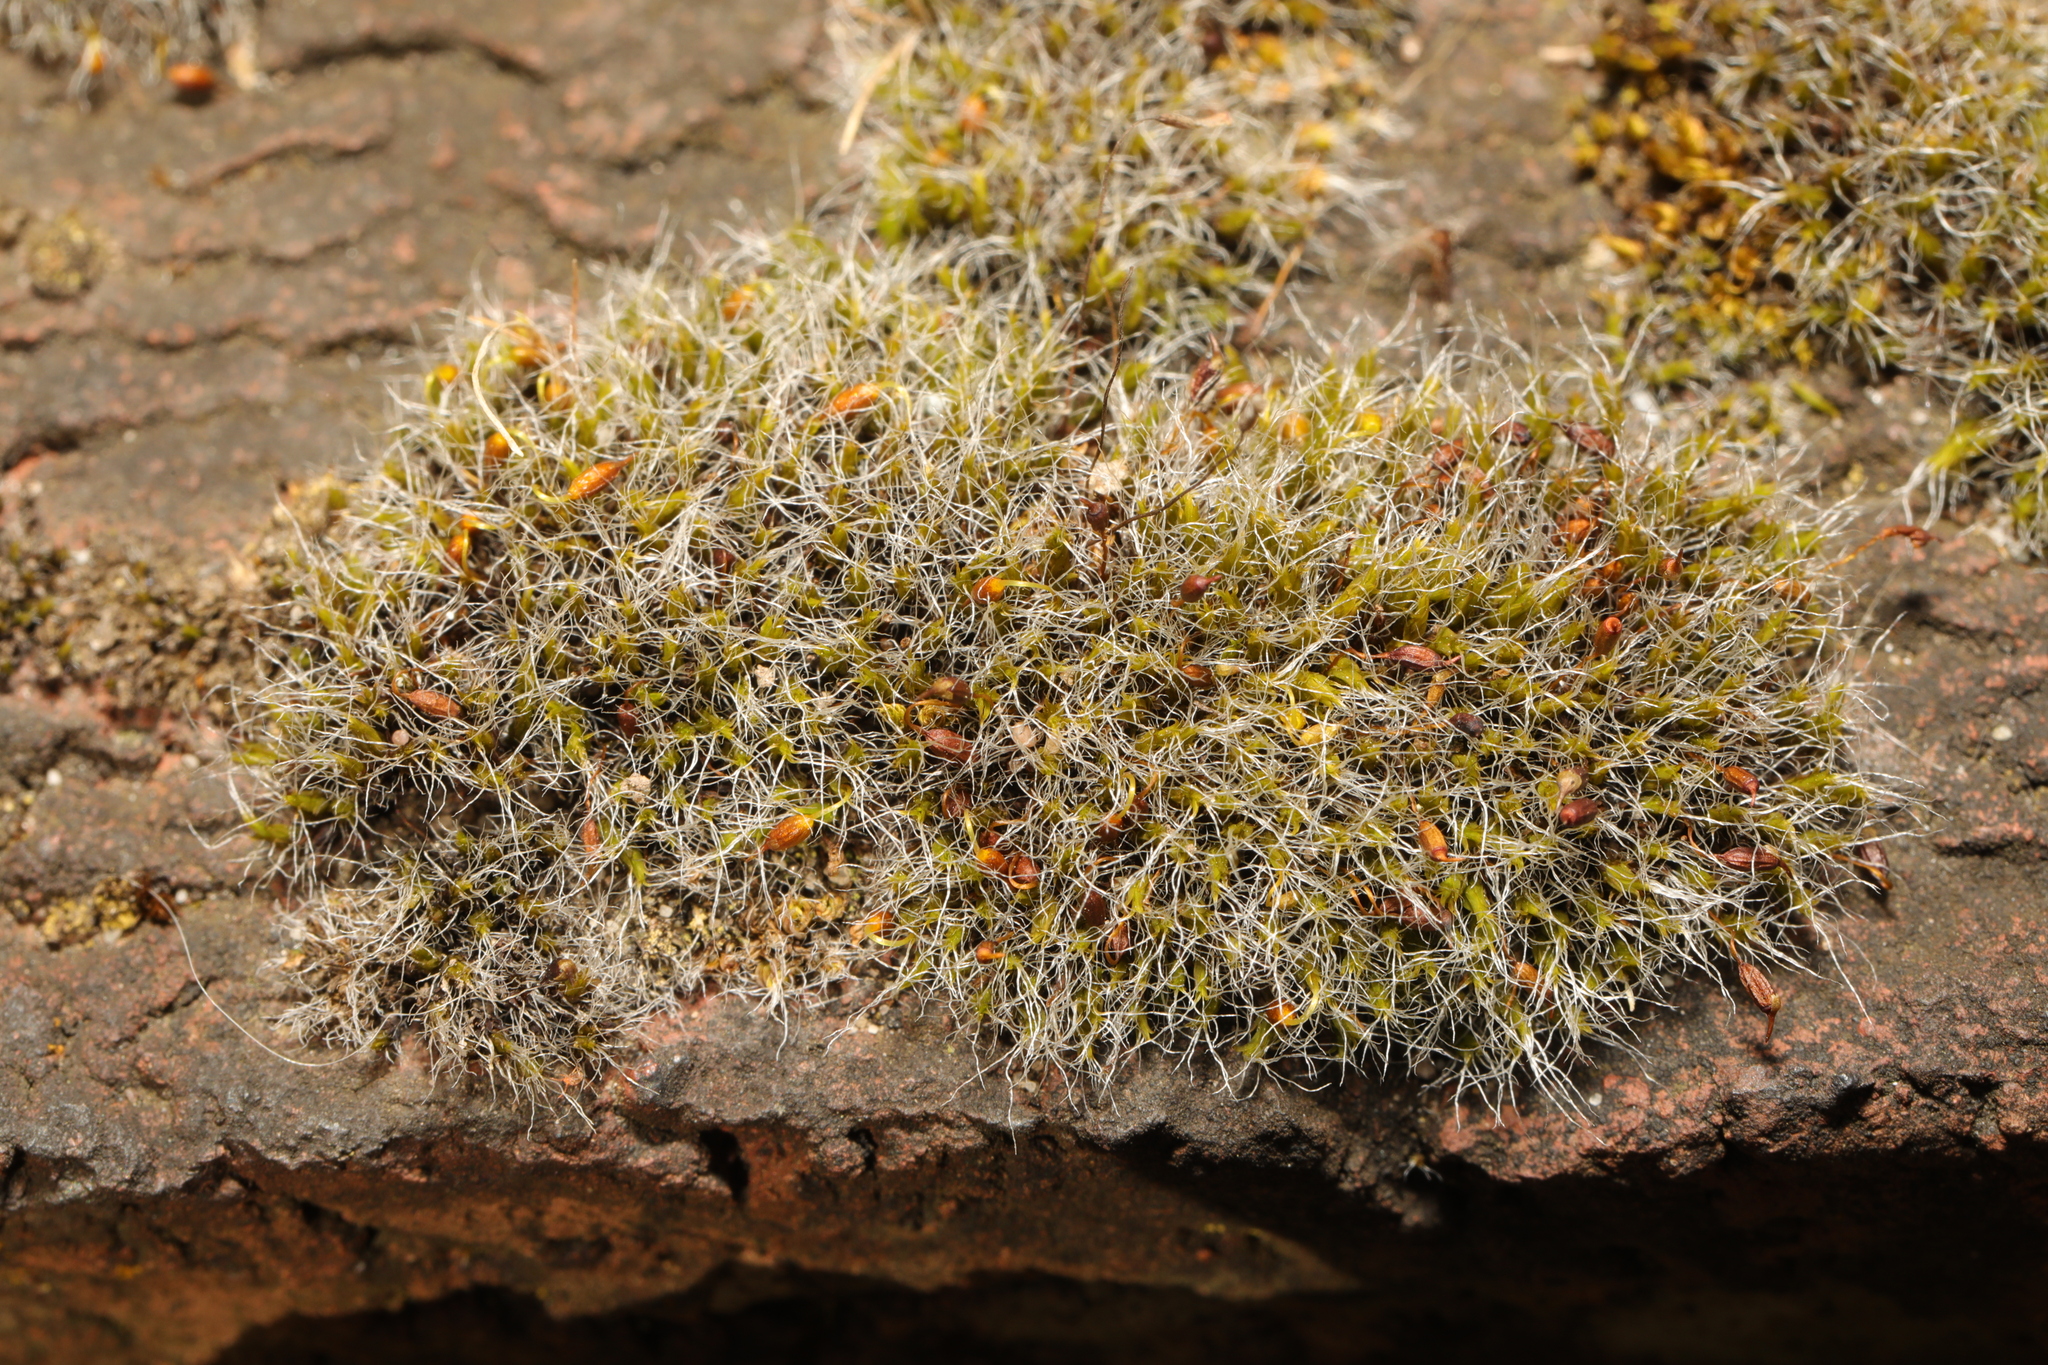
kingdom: Plantae
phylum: Bryophyta
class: Bryopsida
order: Grimmiales
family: Grimmiaceae
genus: Grimmia
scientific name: Grimmia pulvinata
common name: Grey-cushioned grimmia
